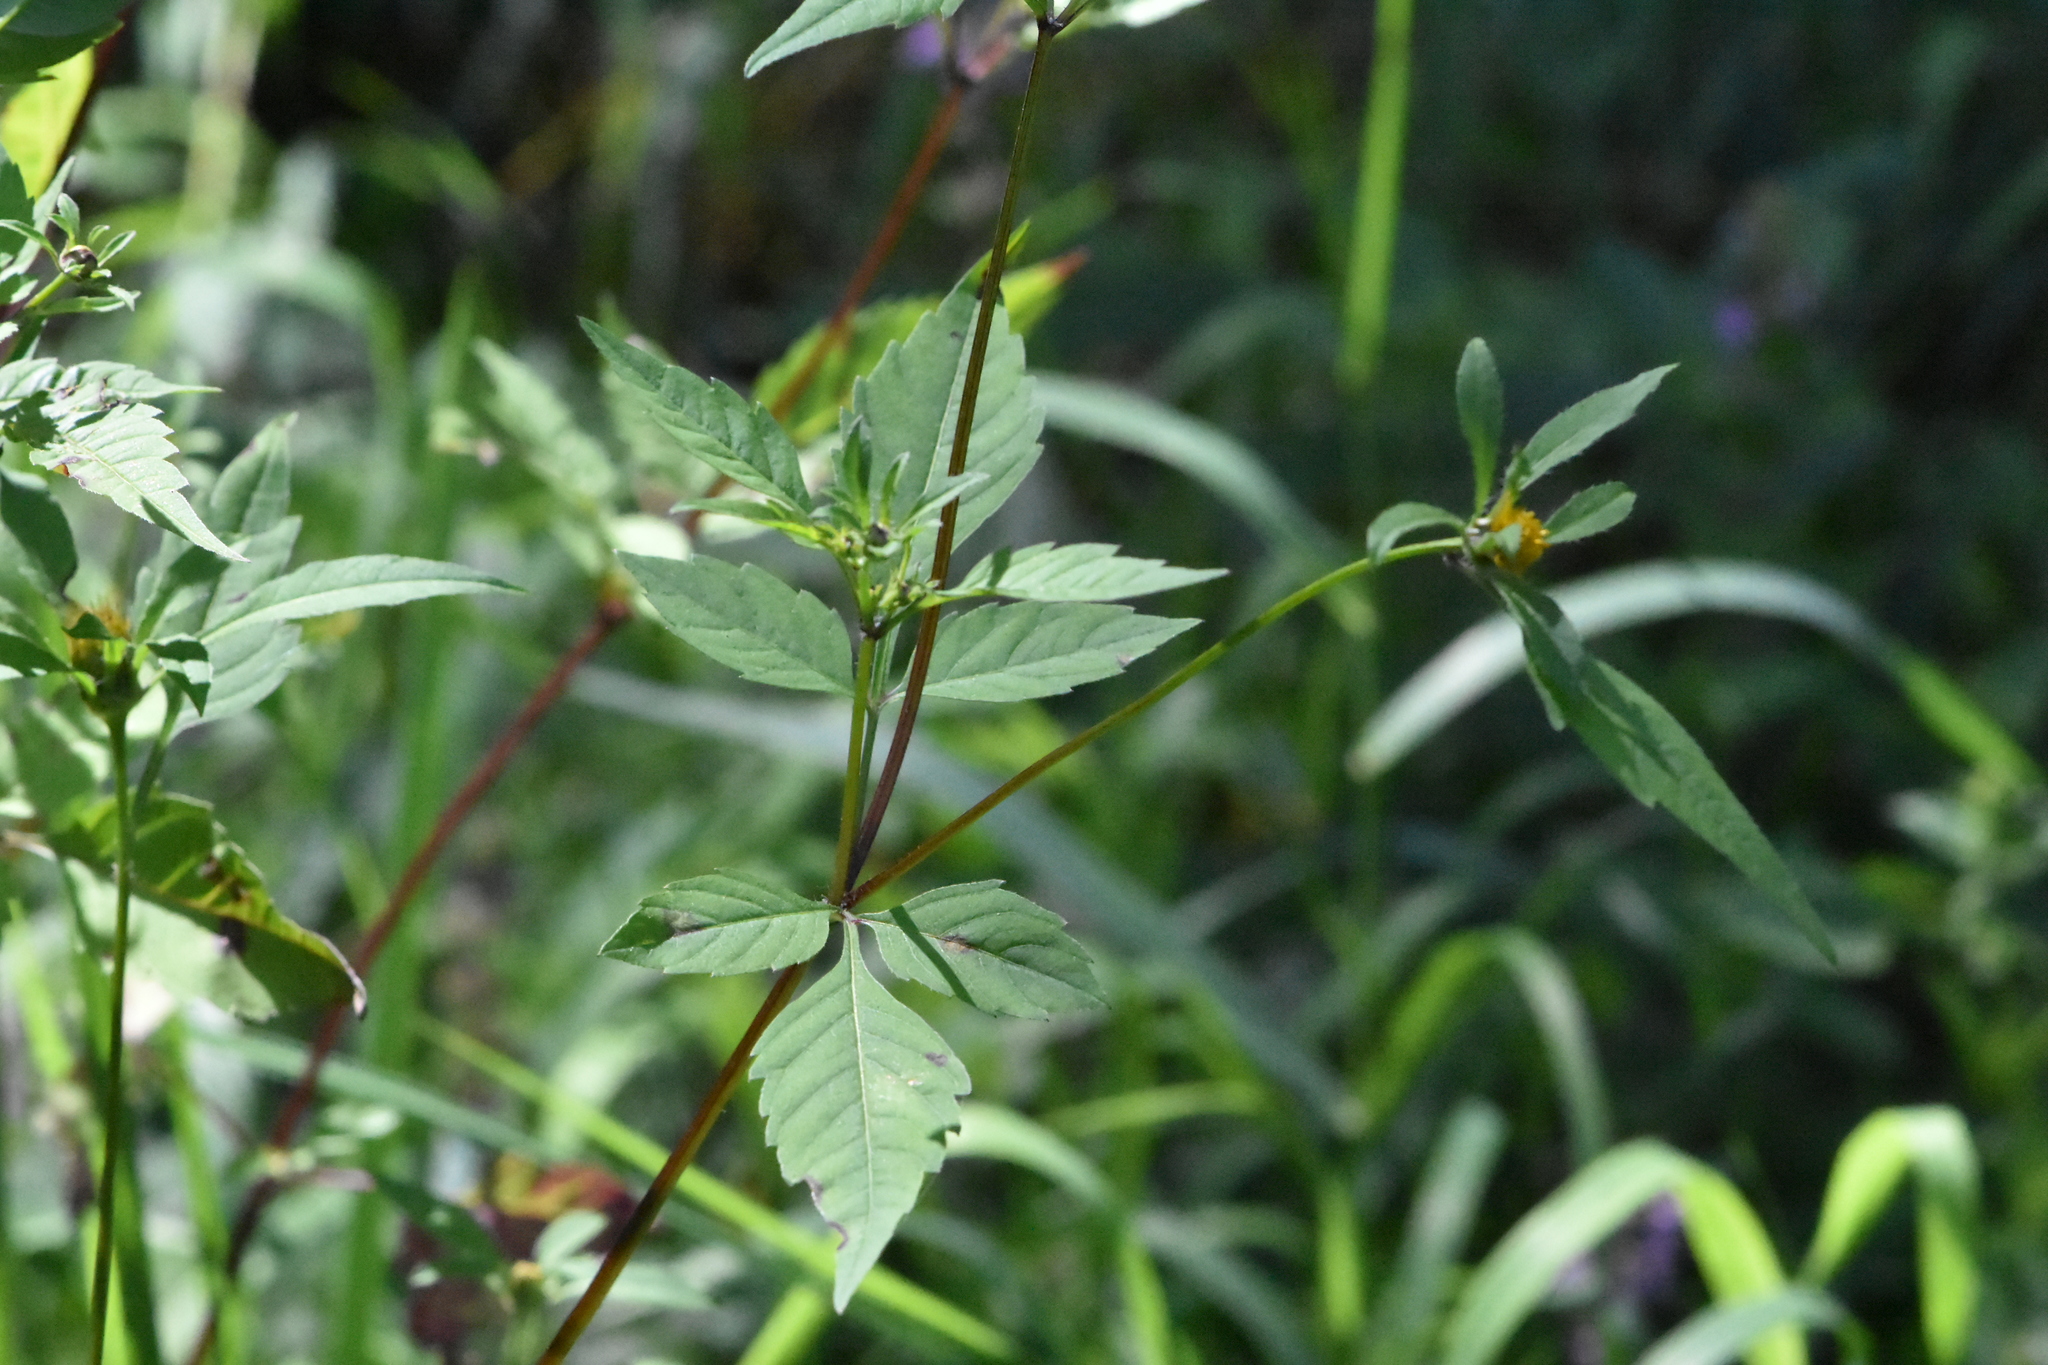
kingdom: Plantae
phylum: Tracheophyta
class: Magnoliopsida
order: Asterales
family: Asteraceae
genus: Bidens
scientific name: Bidens frondosa
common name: Beggarticks
